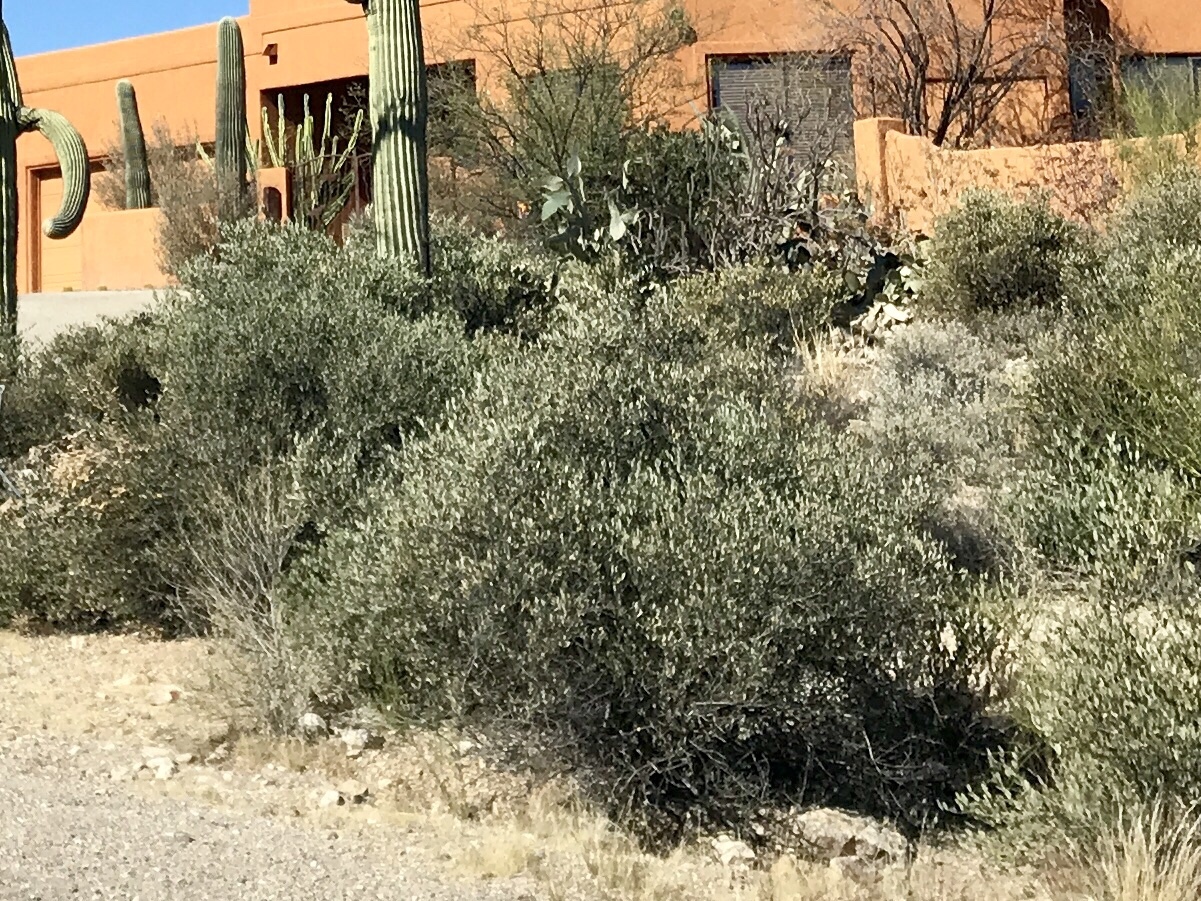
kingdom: Plantae
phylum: Tracheophyta
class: Magnoliopsida
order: Caryophyllales
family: Simmondsiaceae
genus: Simmondsia
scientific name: Simmondsia chinensis
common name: Jojoba
